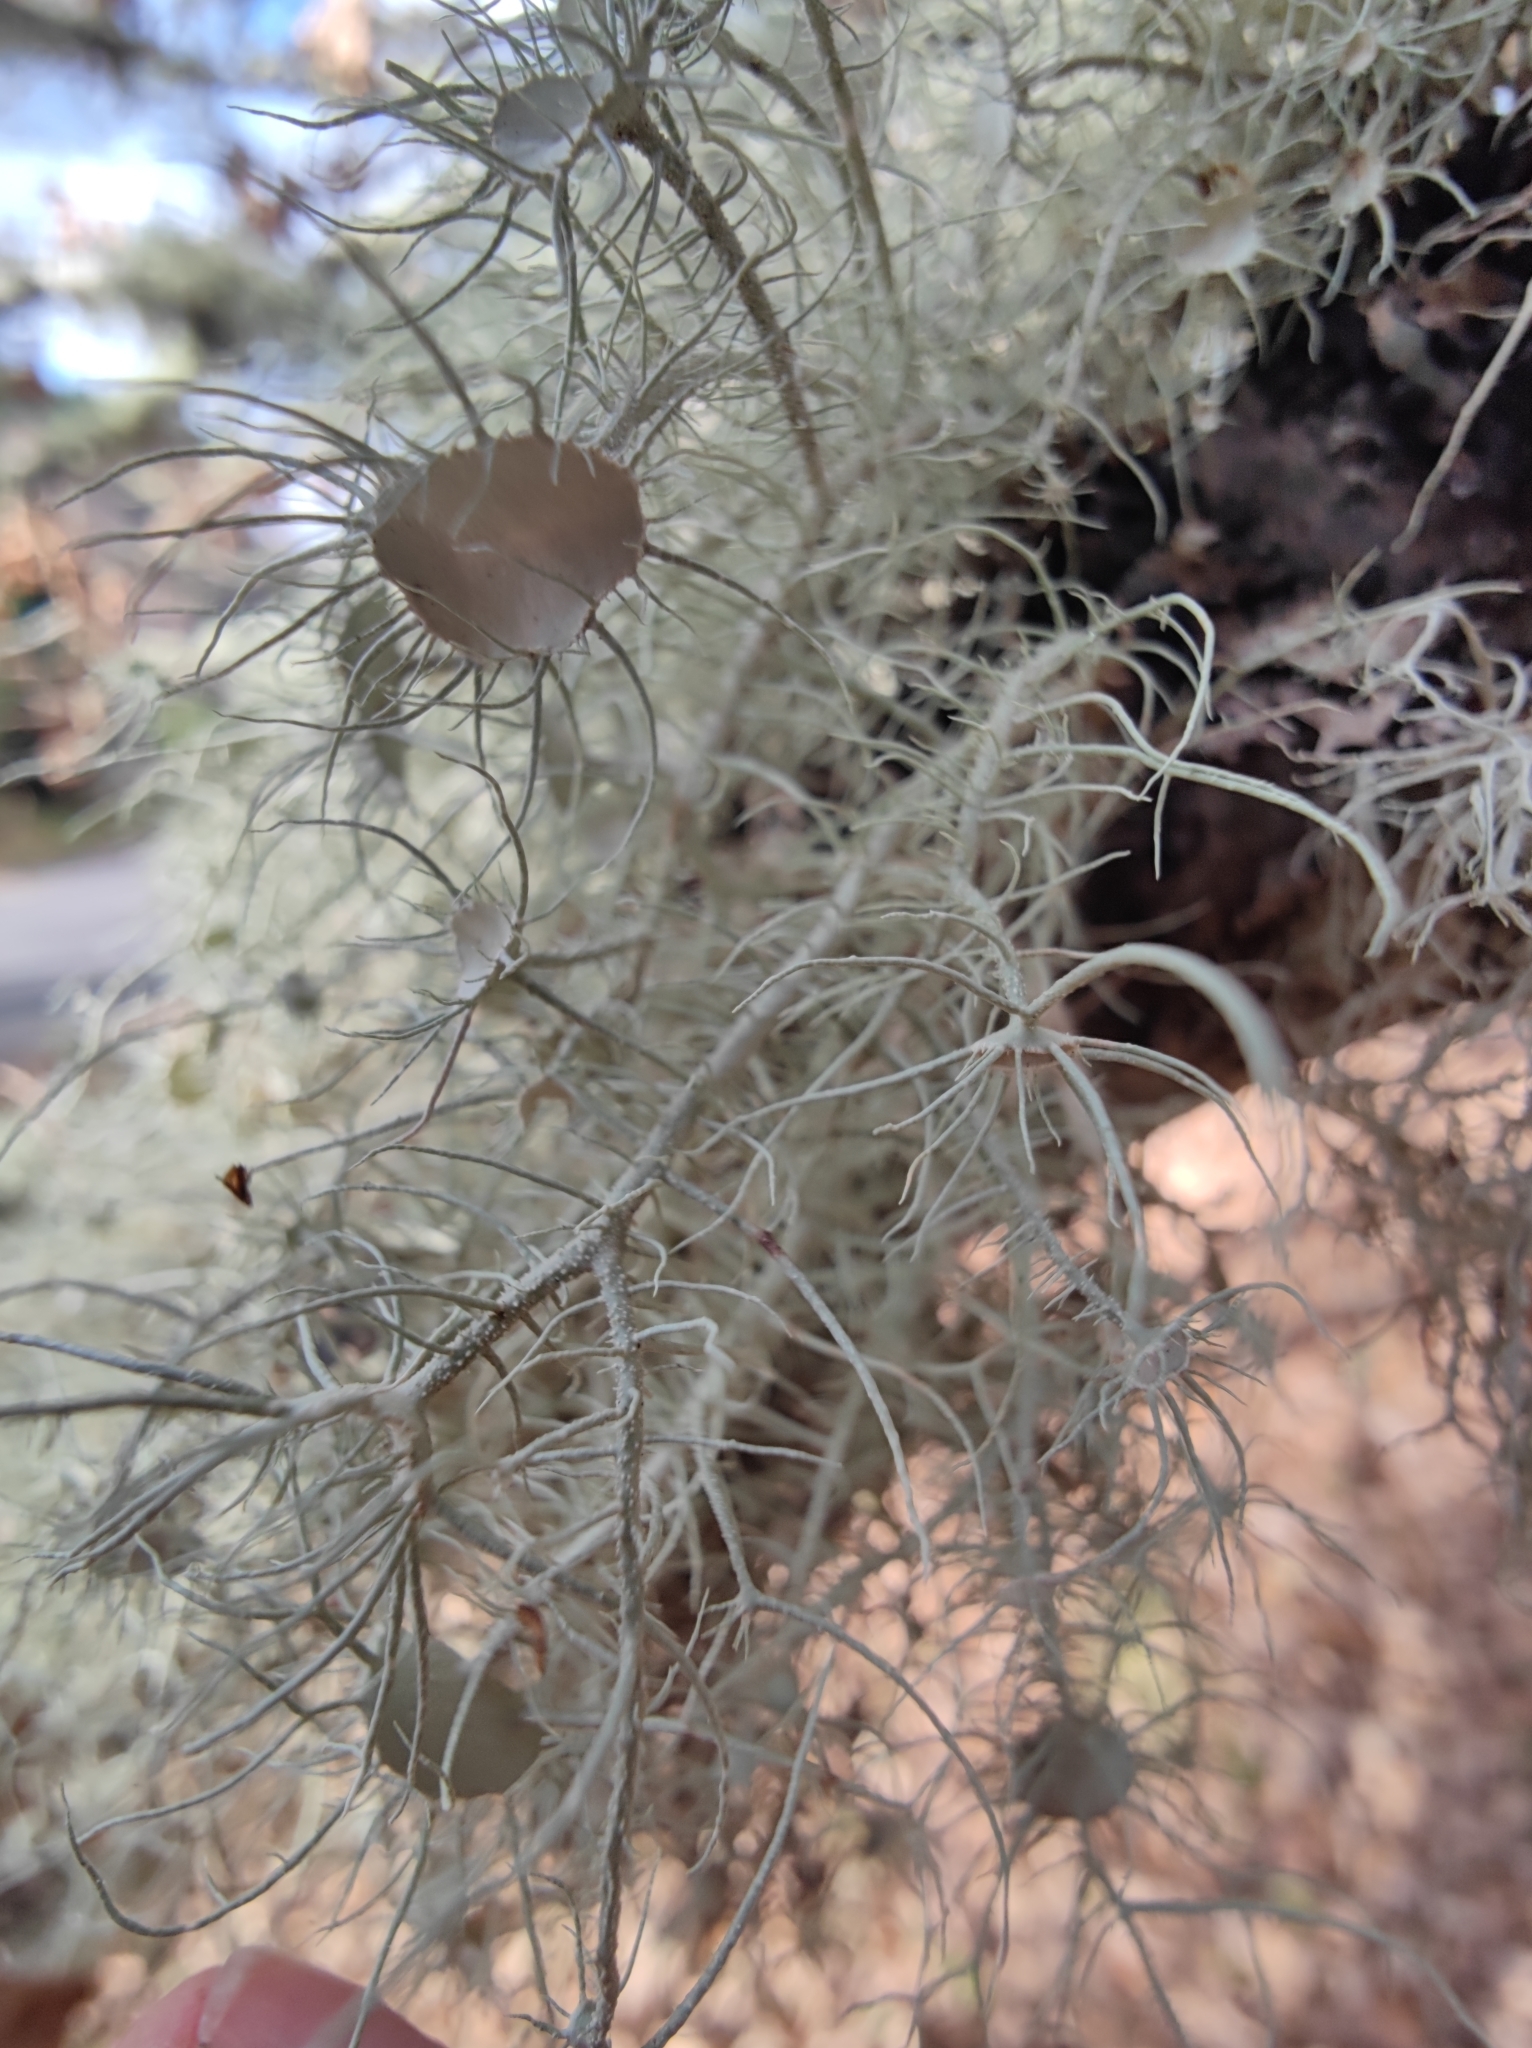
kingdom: Fungi
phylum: Ascomycota
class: Lecanoromycetes
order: Lecanorales
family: Parmeliaceae
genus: Usnea
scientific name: Usnea florida
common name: Witches' whiskers lichen
